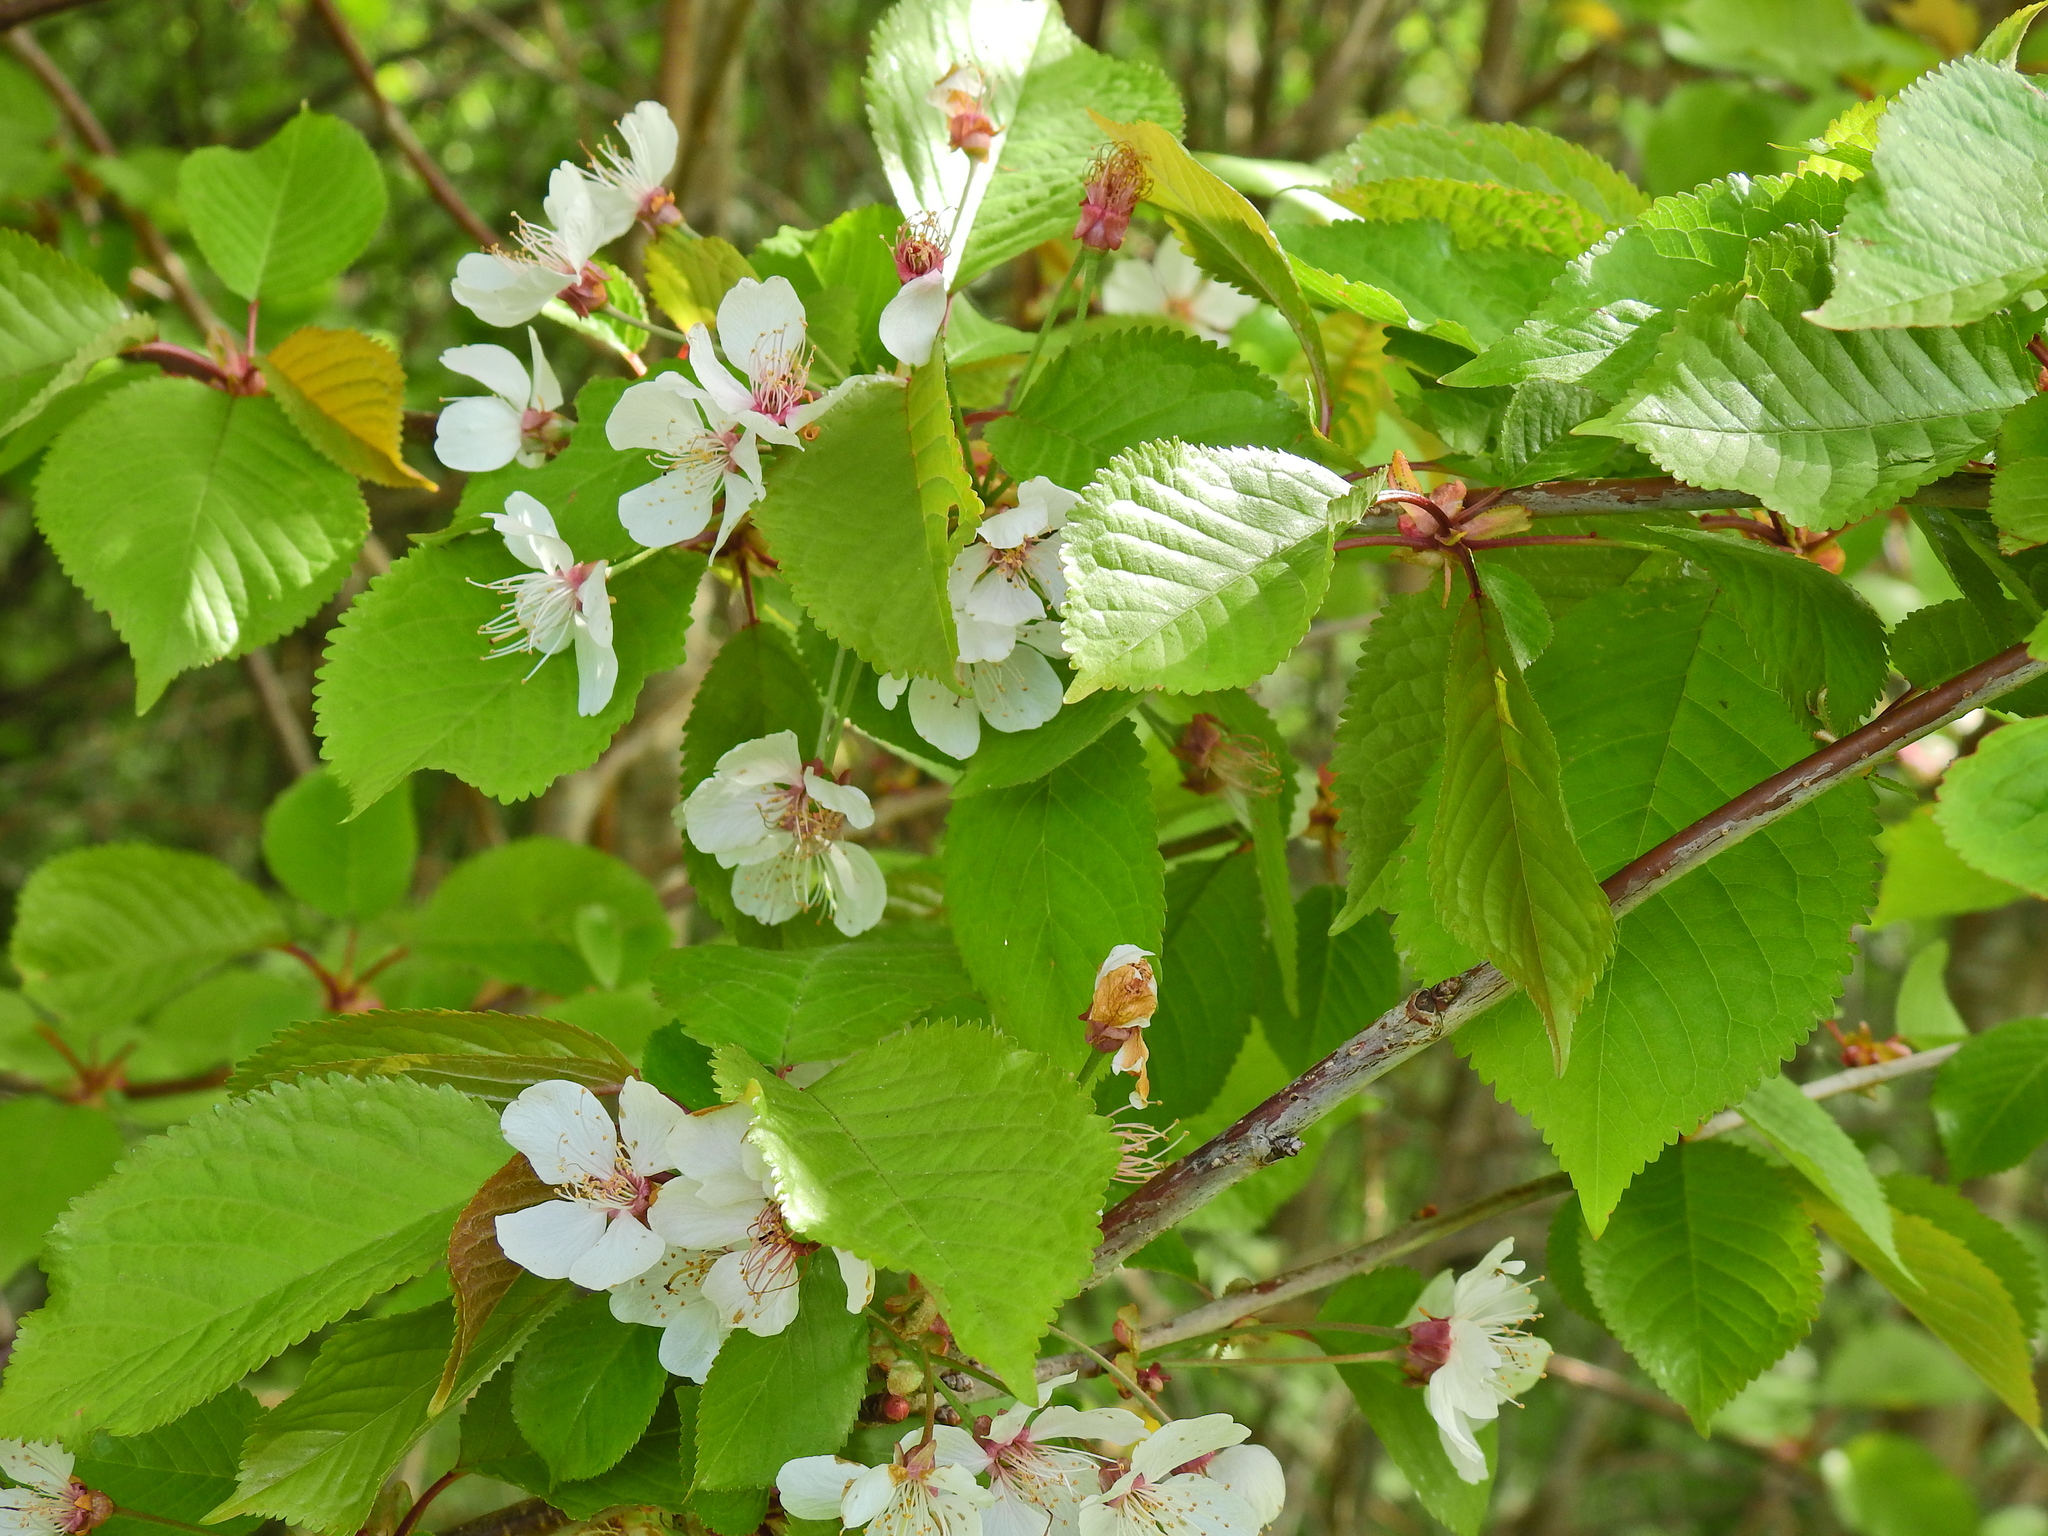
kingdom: Plantae
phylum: Tracheophyta
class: Magnoliopsida
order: Rosales
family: Rosaceae
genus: Prunus
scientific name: Prunus avium
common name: Sweet cherry
